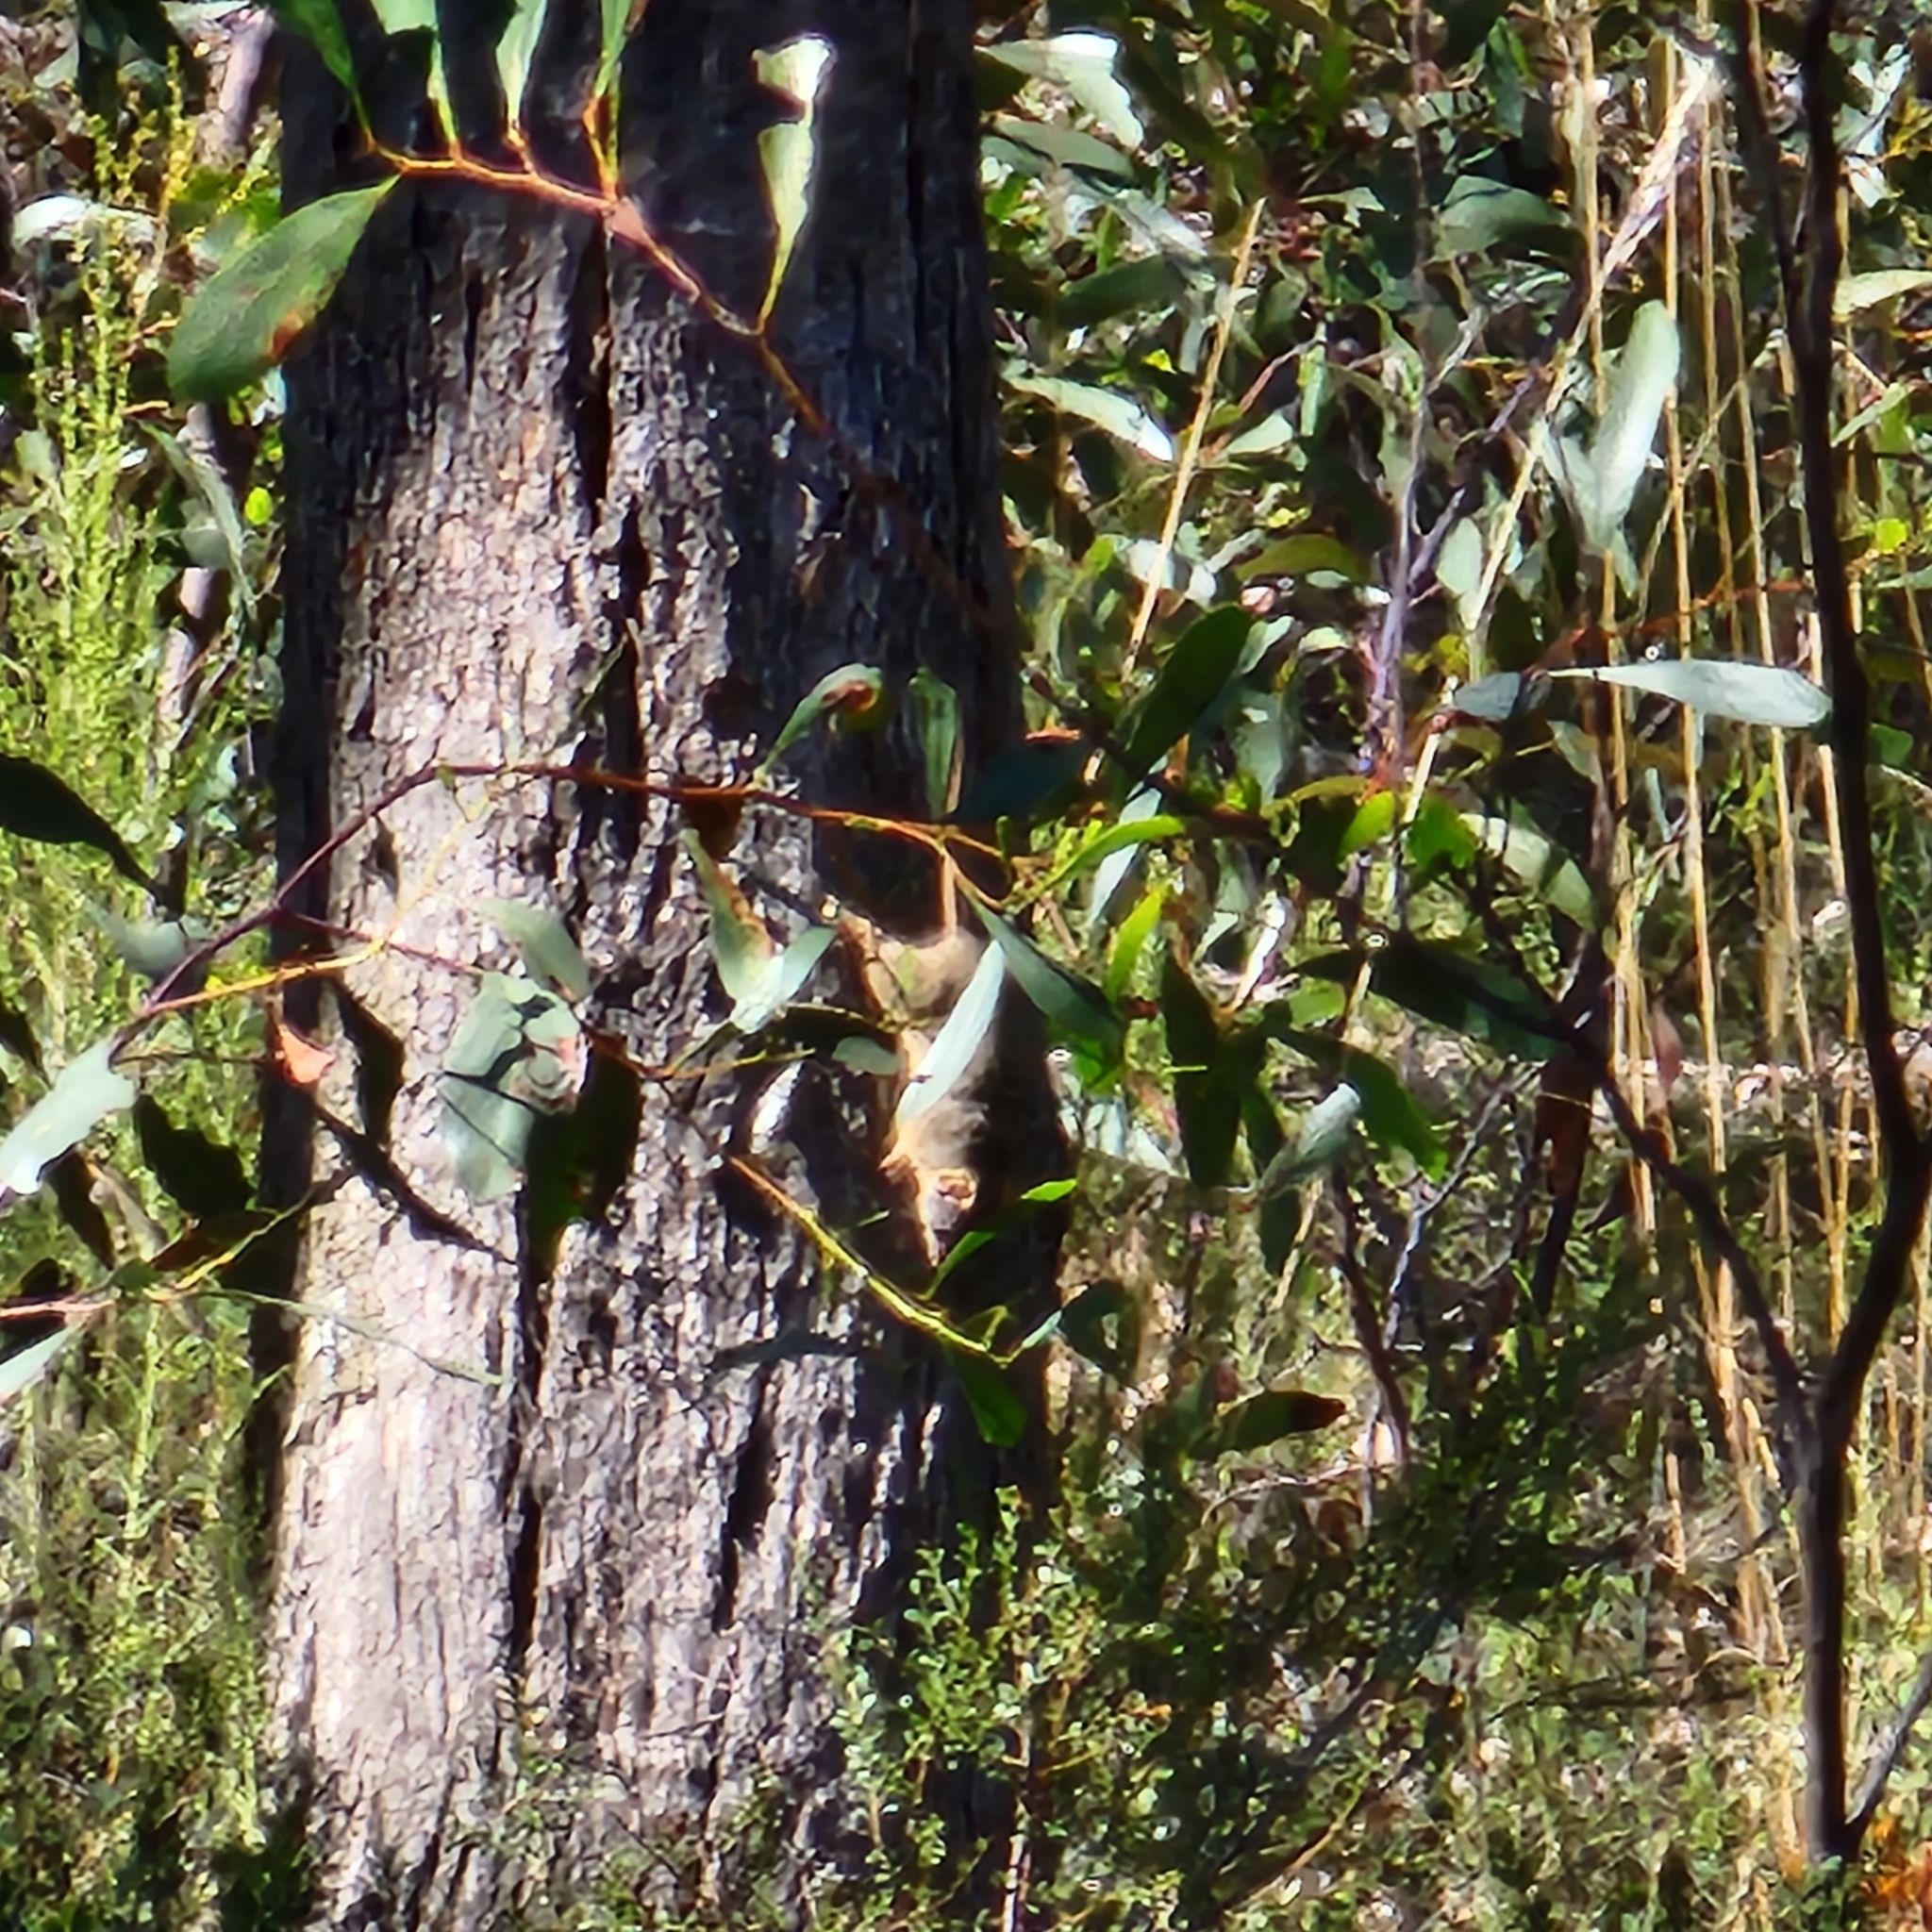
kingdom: Animalia
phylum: Chordata
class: Mammalia
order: Dasyuromorphia
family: Dasyuridae
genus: Antechinus
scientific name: Antechinus flavipes
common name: Yellow-footed antechinus
